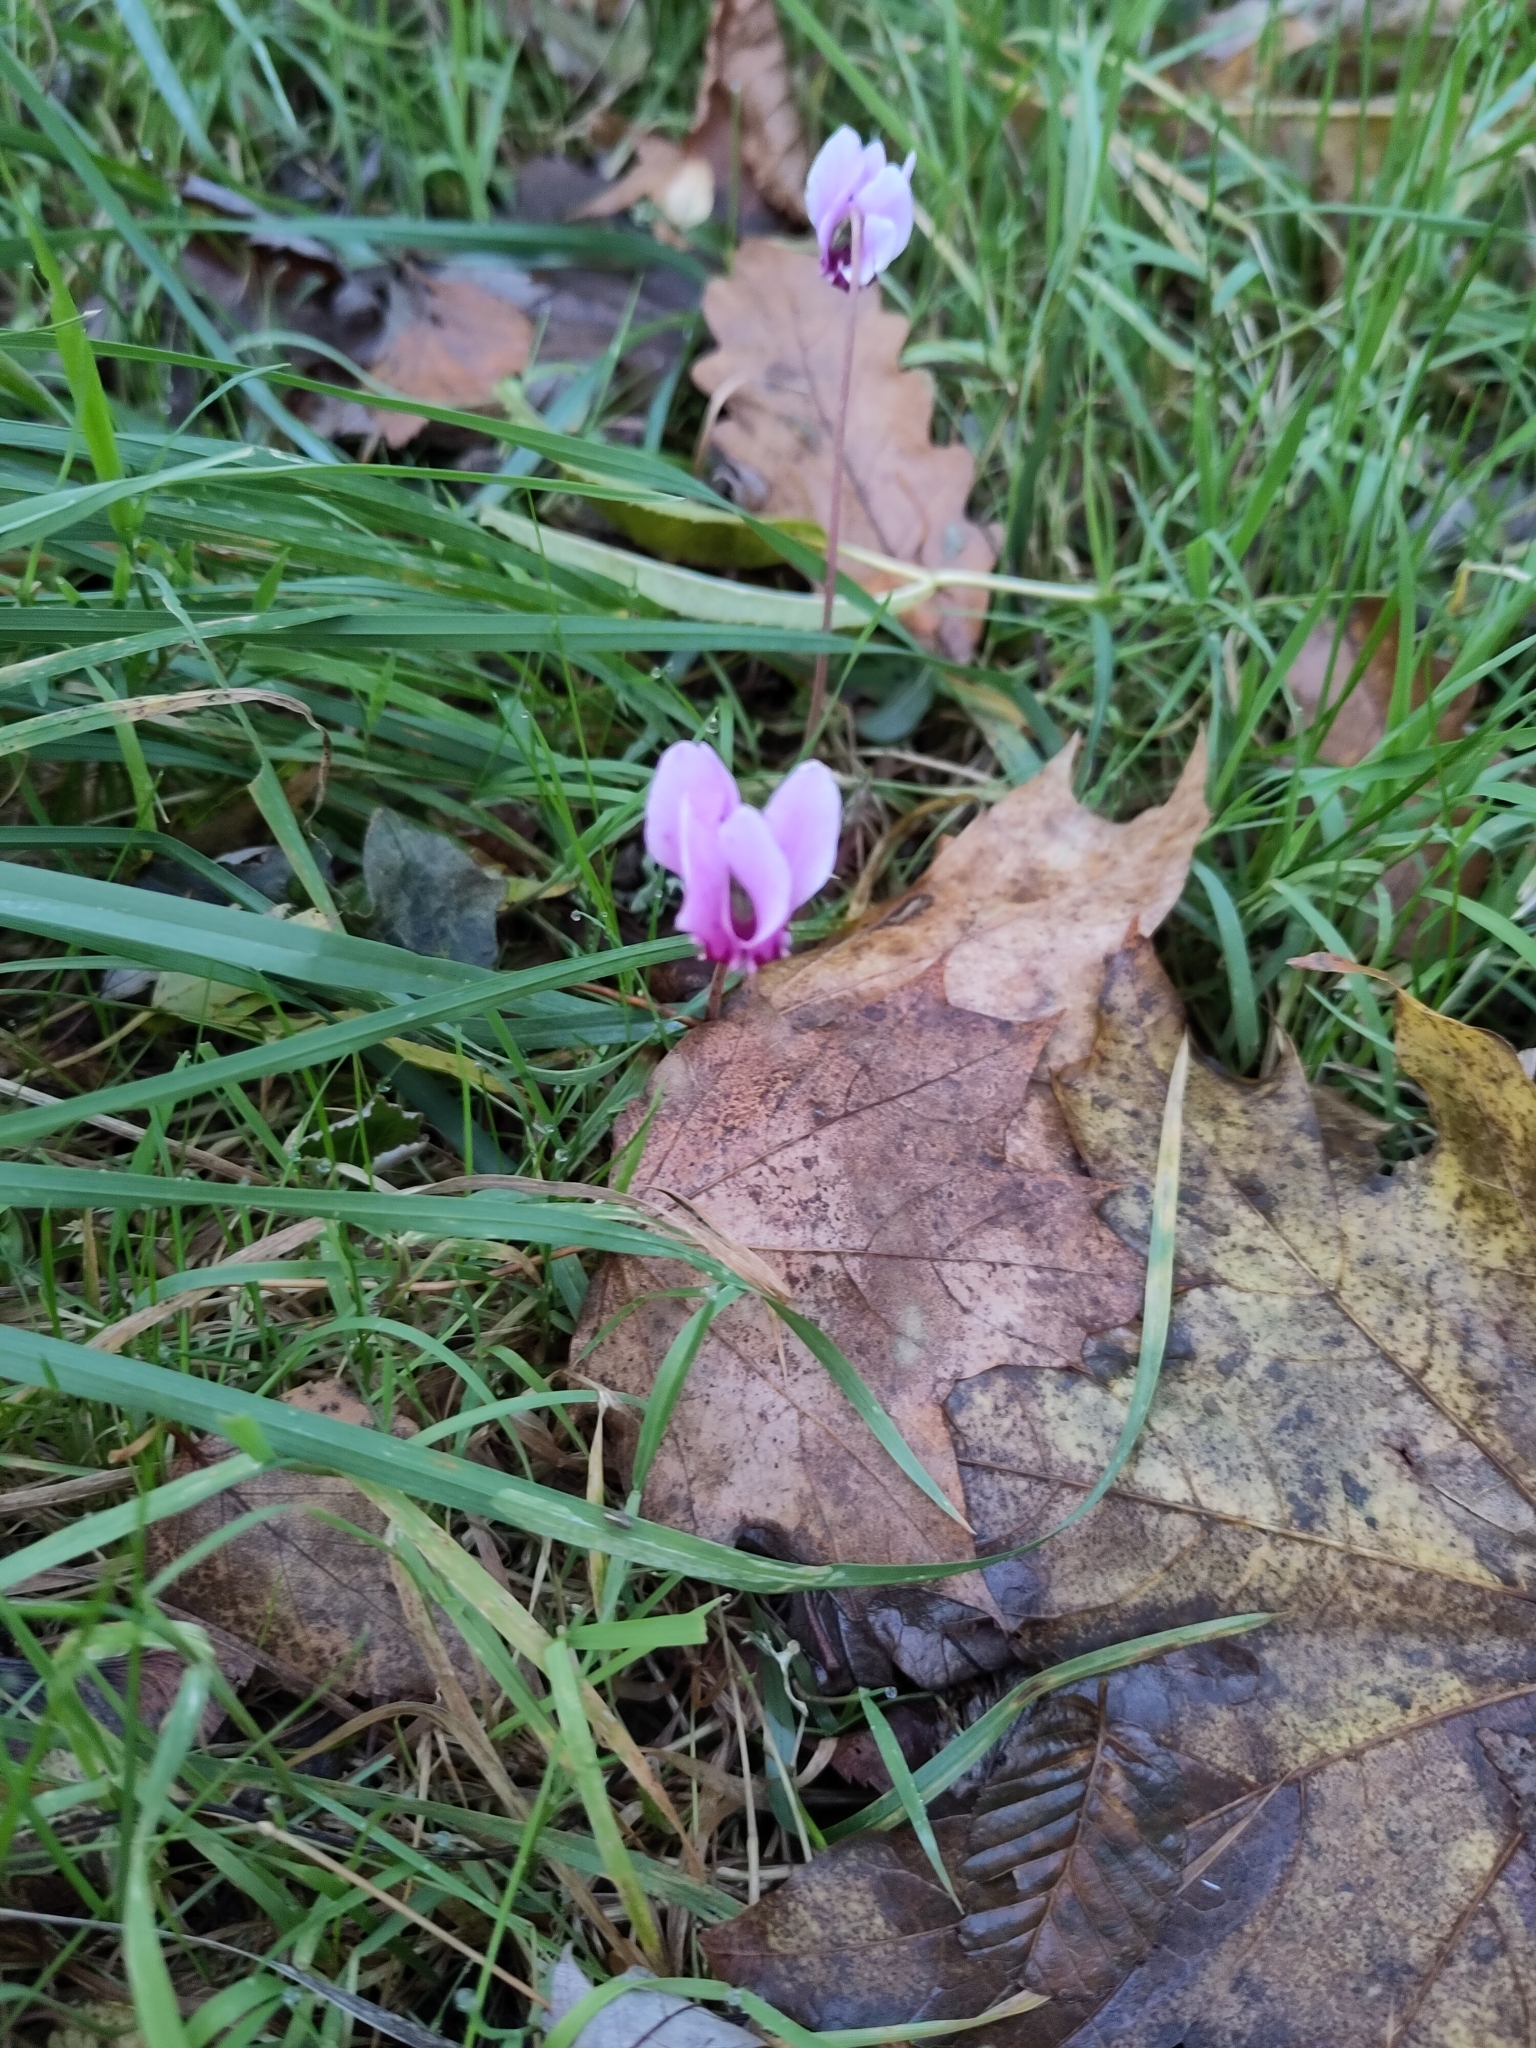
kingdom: Plantae
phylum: Tracheophyta
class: Magnoliopsida
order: Ericales
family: Primulaceae
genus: Cyclamen
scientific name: Cyclamen hederifolium
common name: Sowbread
